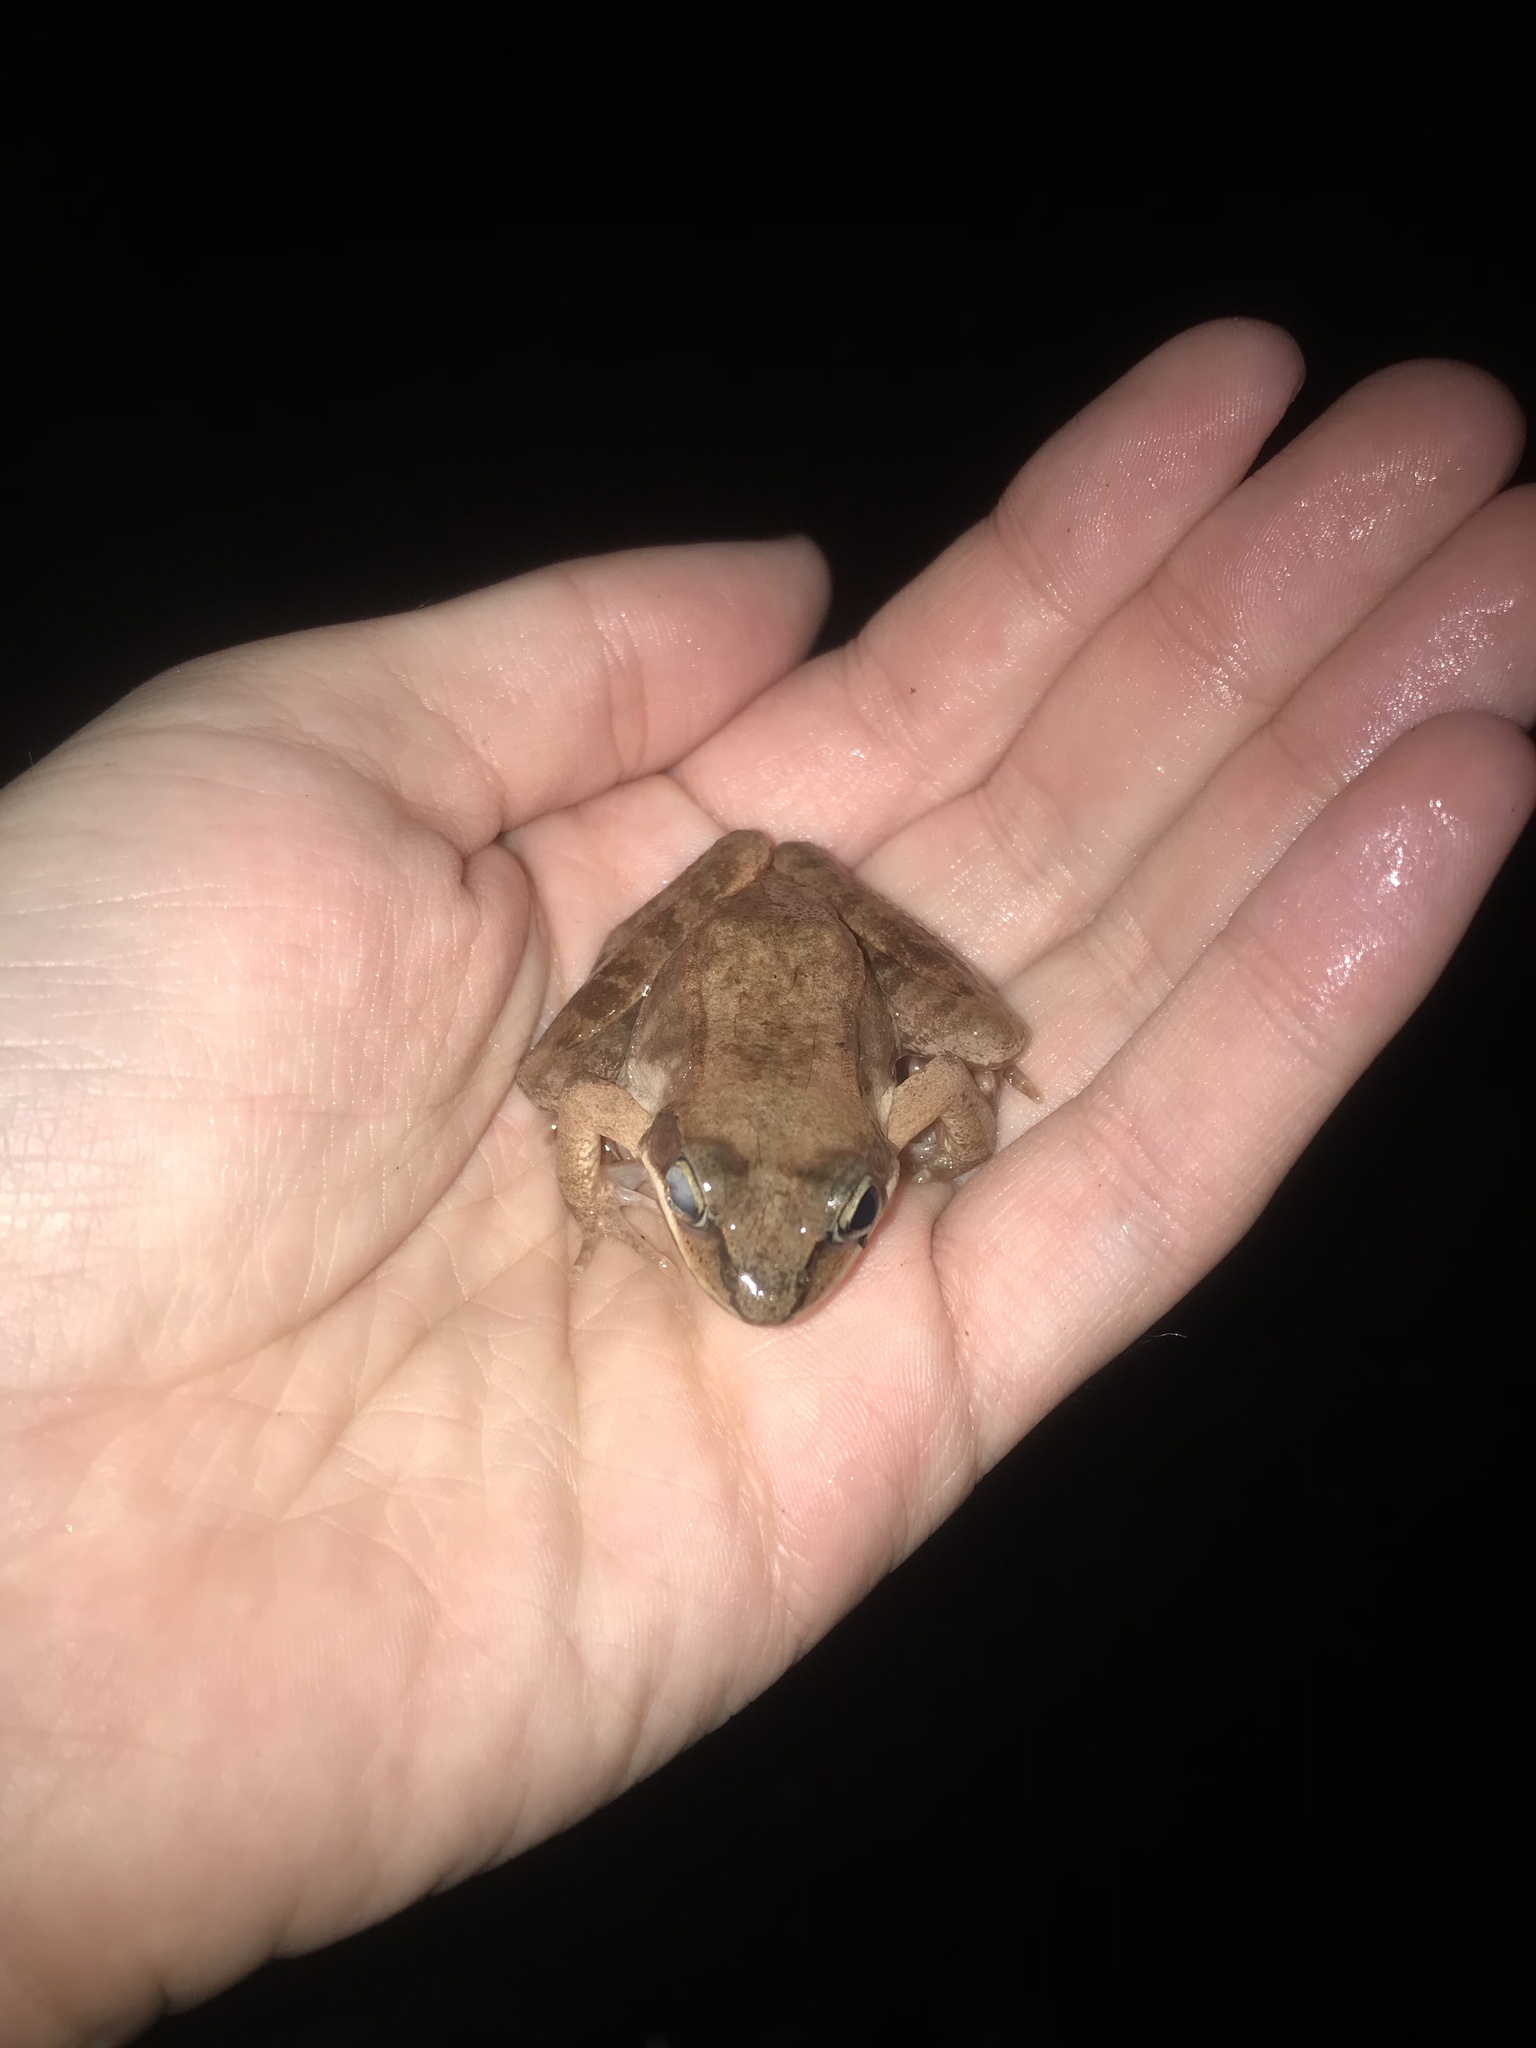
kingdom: Animalia
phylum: Chordata
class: Amphibia
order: Anura
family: Ranidae
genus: Lithobates
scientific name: Lithobates sylvaticus
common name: Wood frog
